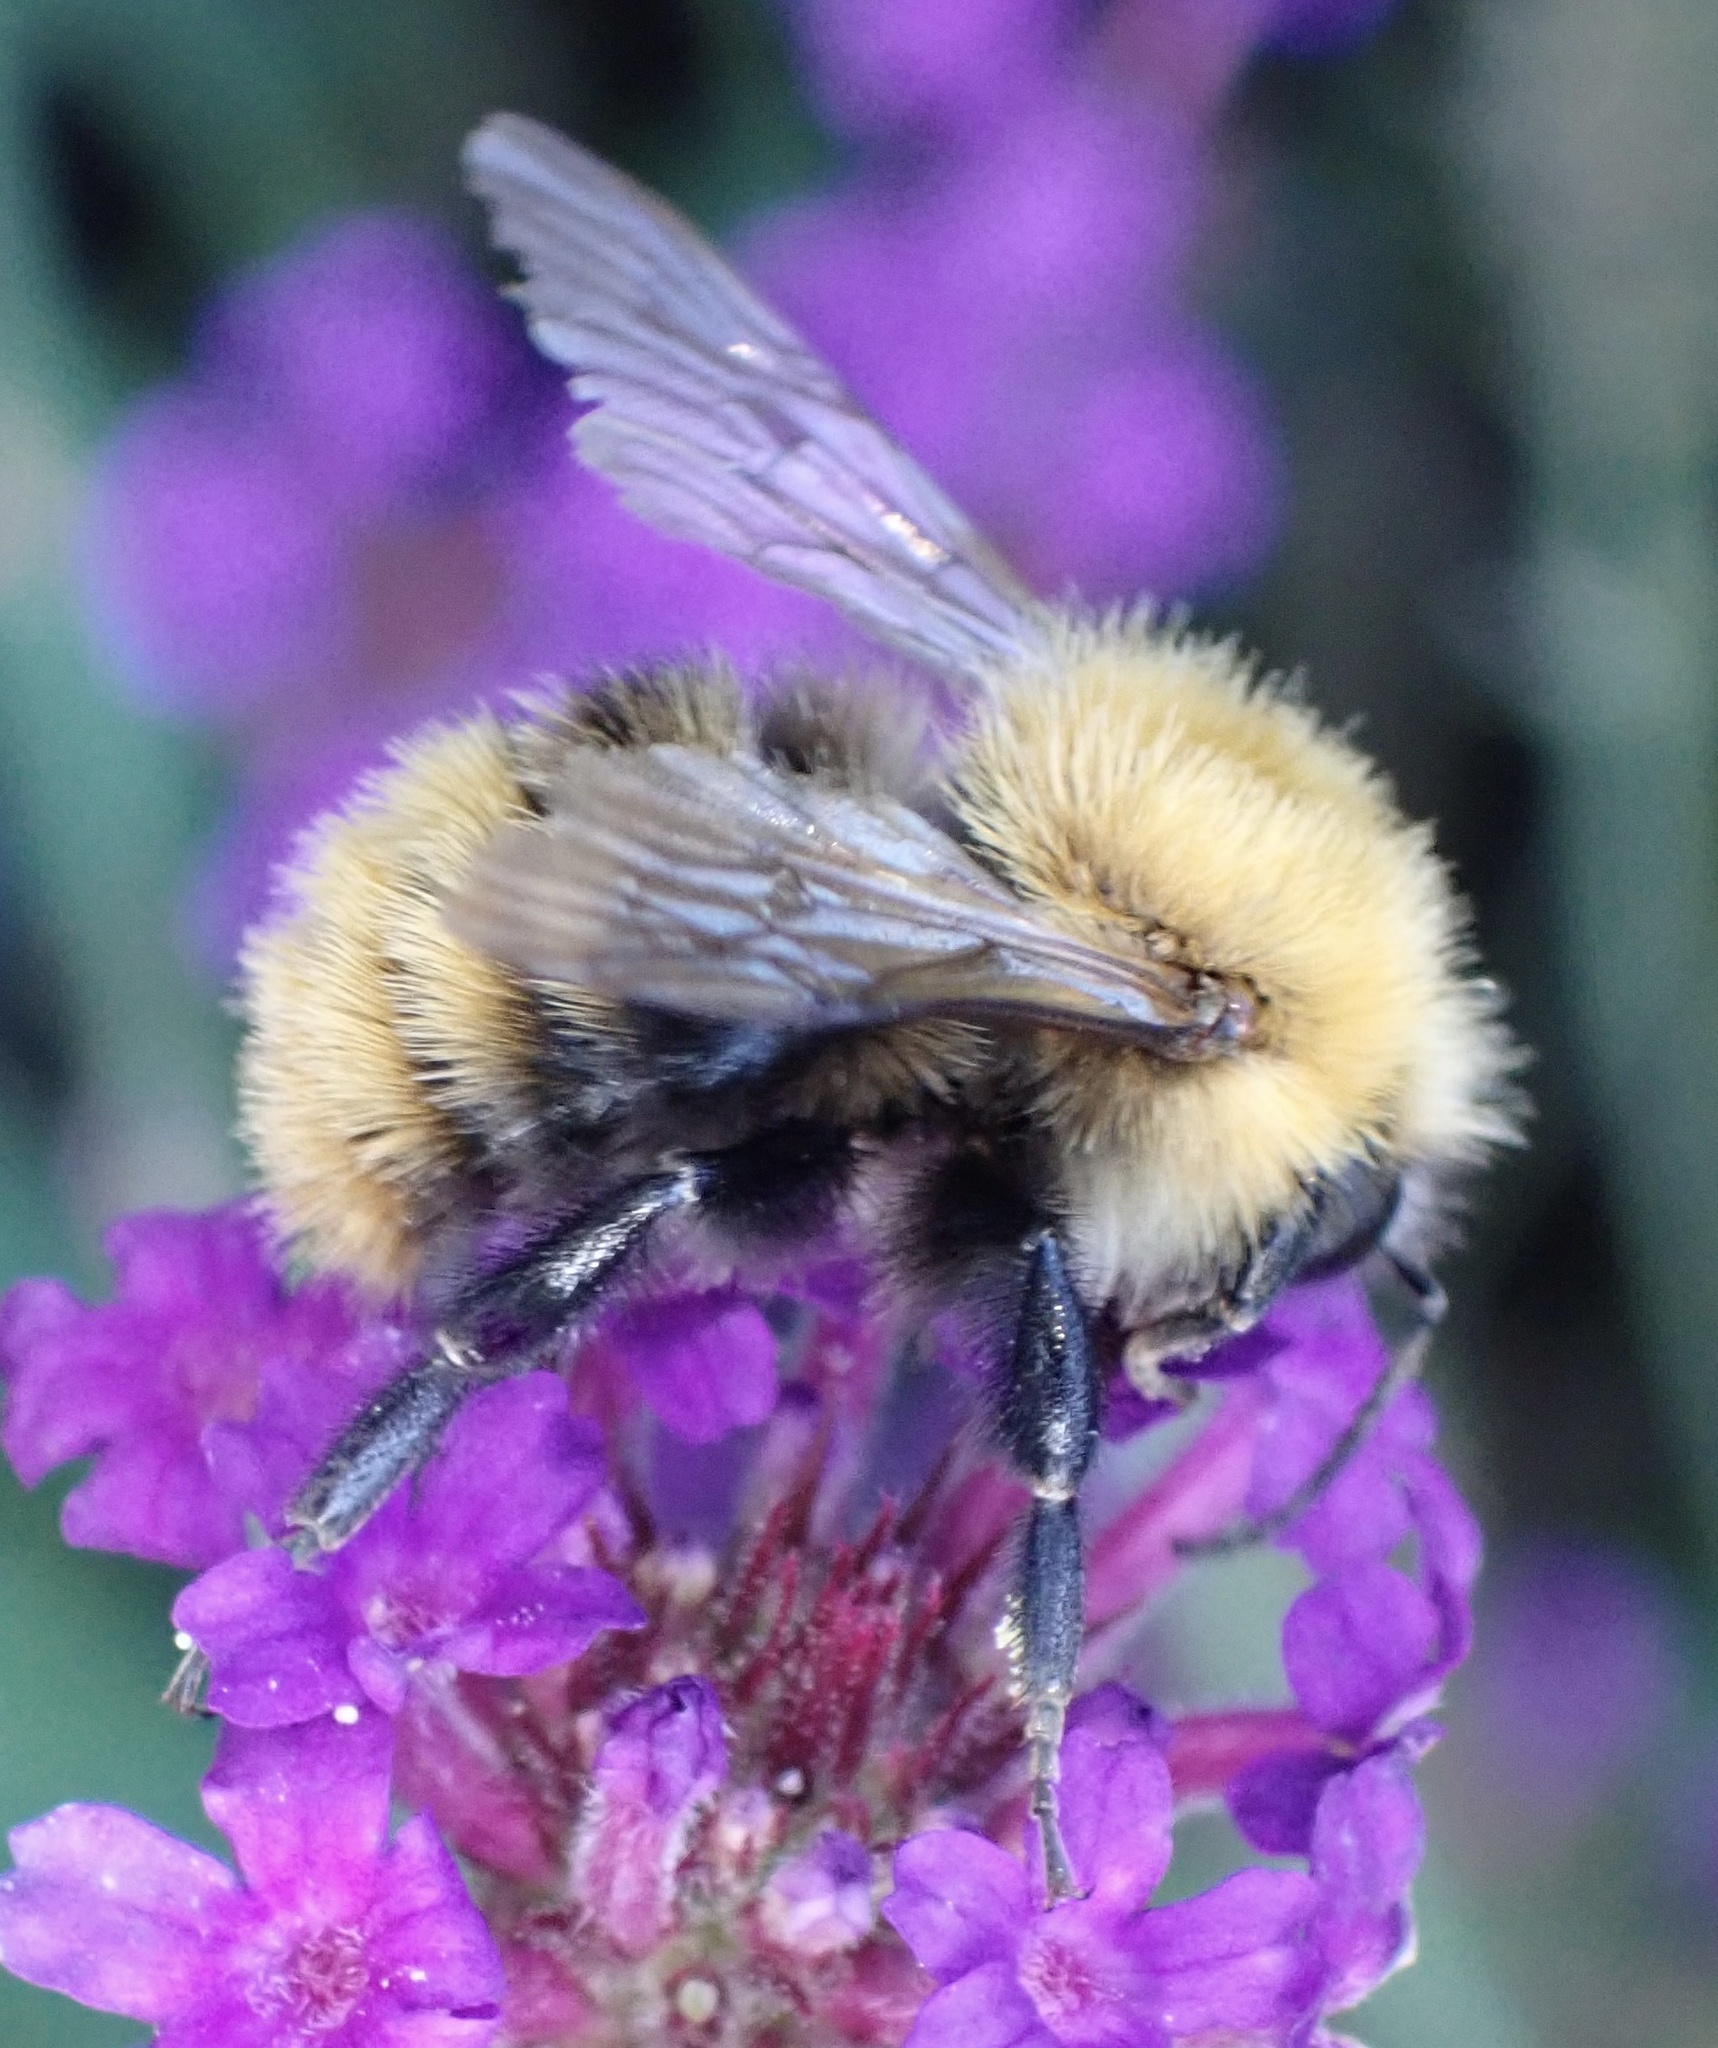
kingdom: Animalia
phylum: Arthropoda
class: Insecta
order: Hymenoptera
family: Apidae
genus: Bombus
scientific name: Bombus pascuorum
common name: Common carder bee
